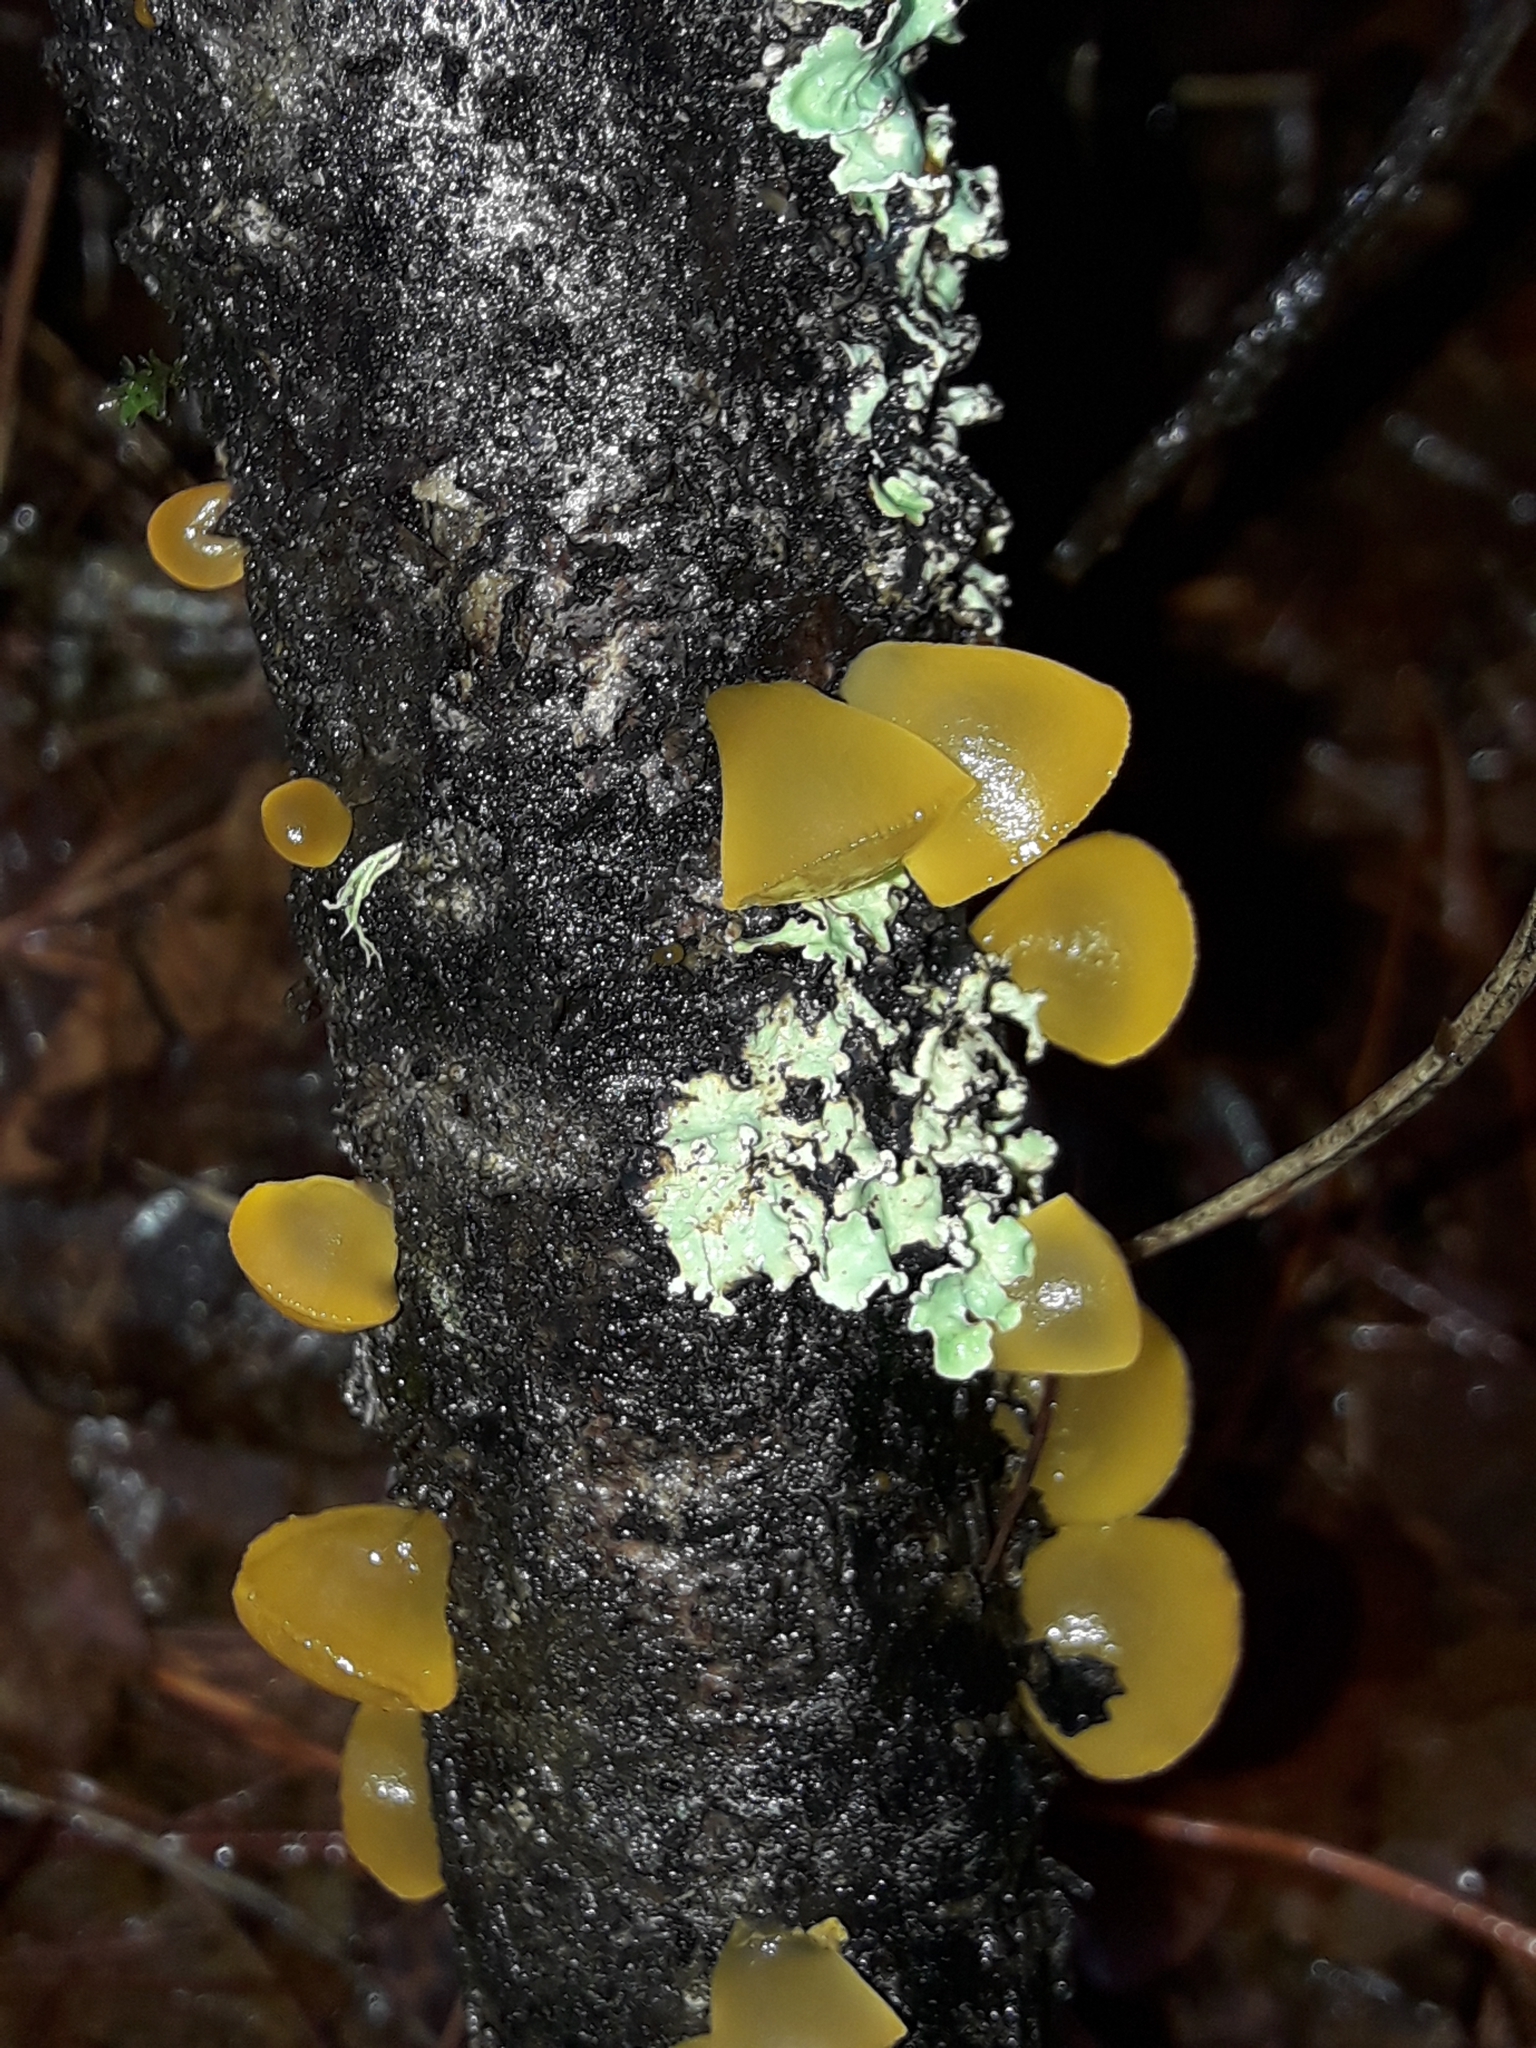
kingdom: Fungi
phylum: Basidiomycota
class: Dacrymycetes
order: Dacrymycetales
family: Dacrymycetaceae
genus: Heterotextus
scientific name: Heterotextus miltinus
